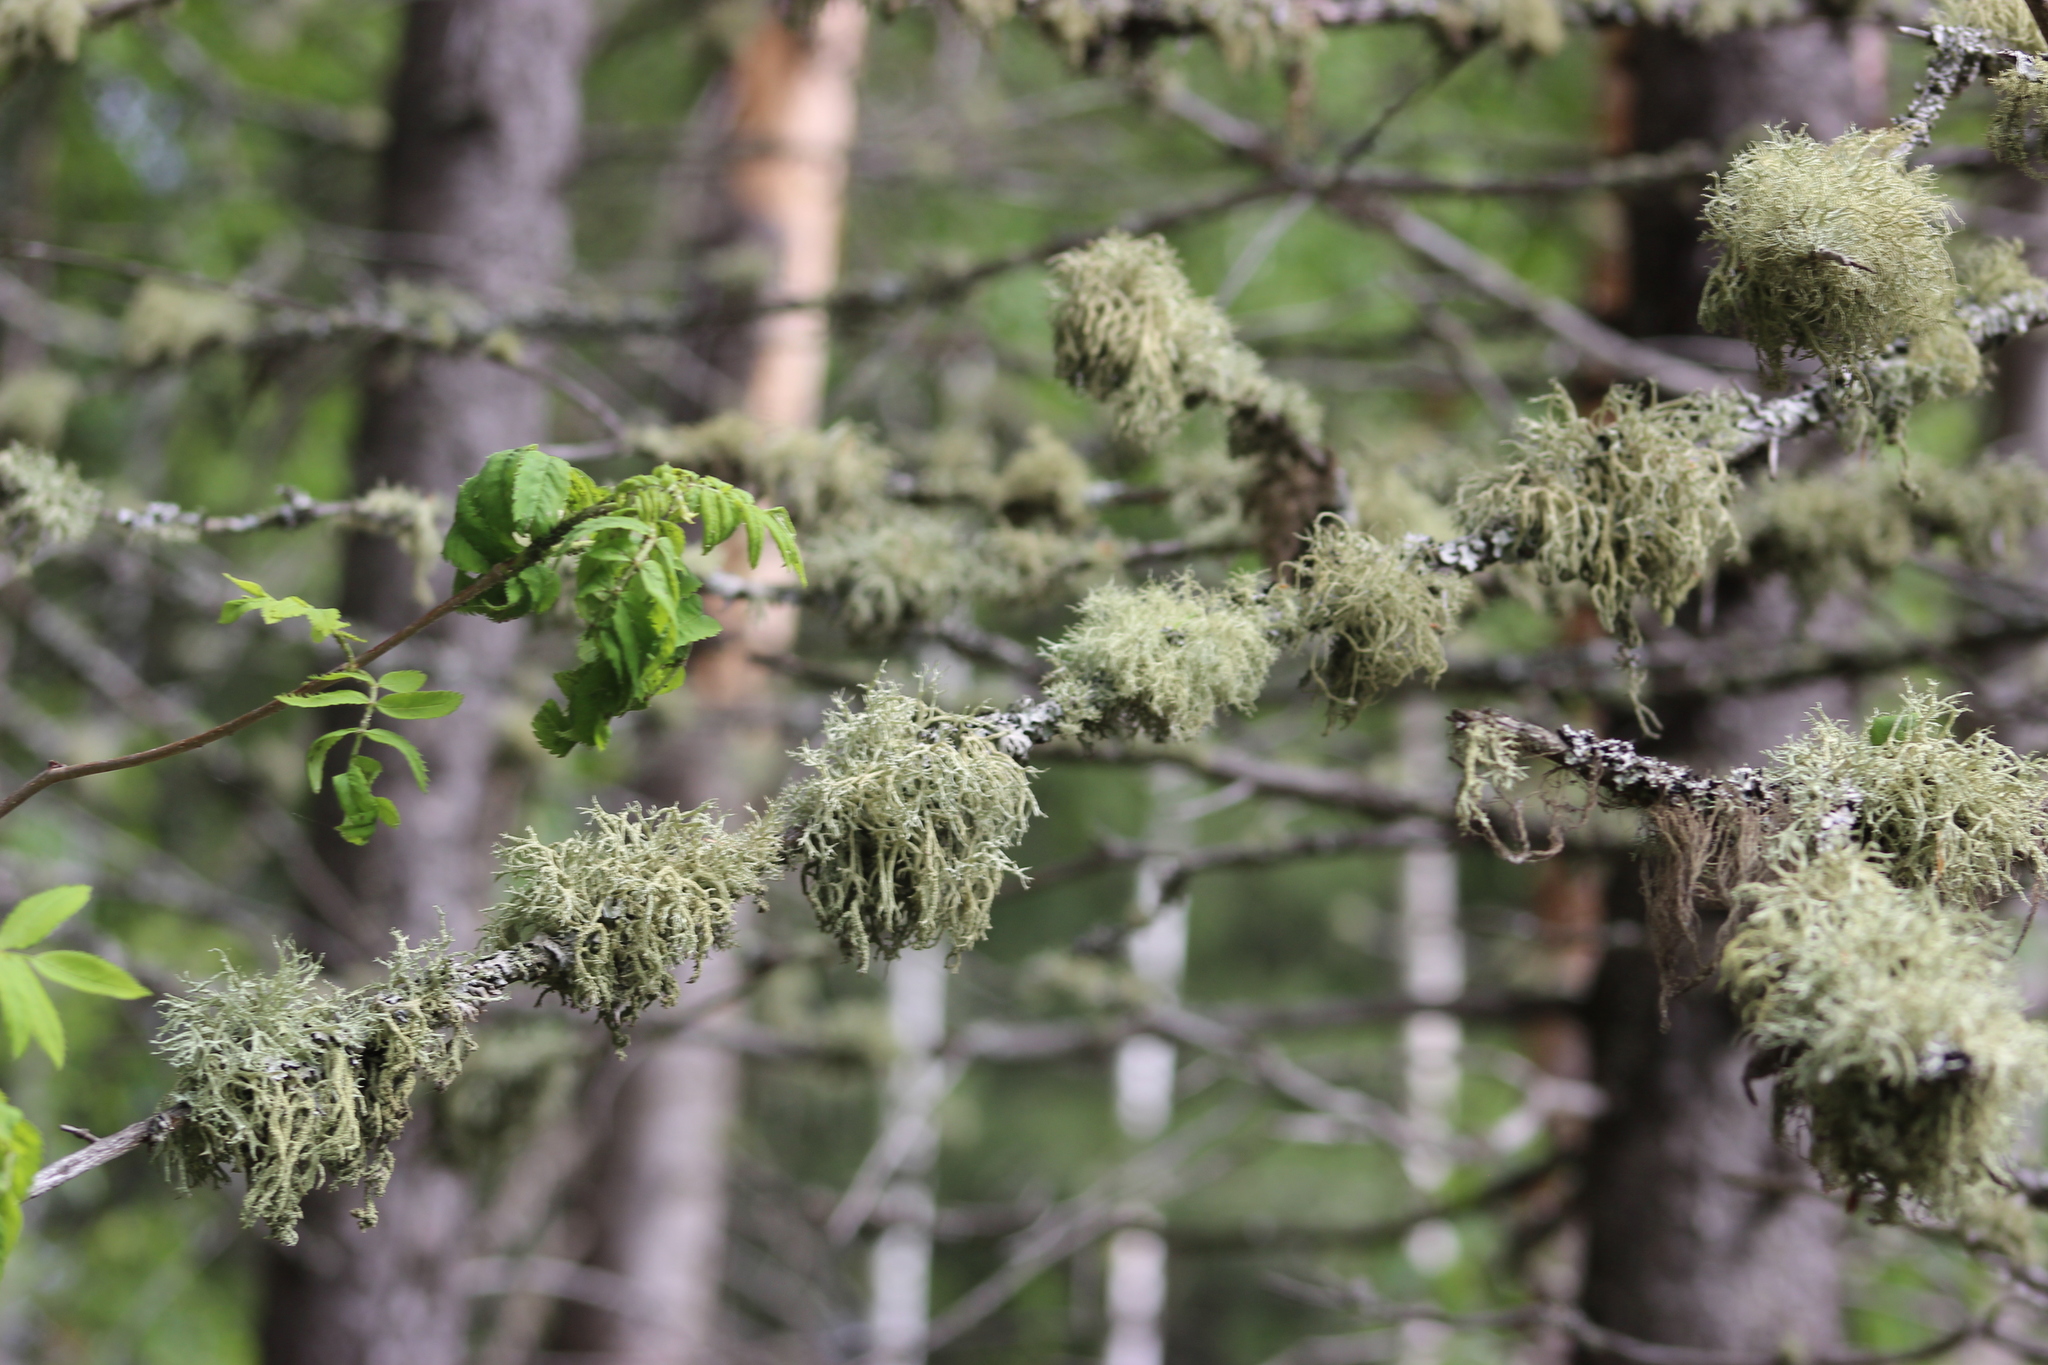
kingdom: Fungi
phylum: Ascomycota
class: Lecanoromycetes
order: Lecanorales
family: Parmeliaceae
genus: Evernia
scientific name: Evernia mesomorpha
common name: Boreal oak moss lichen
